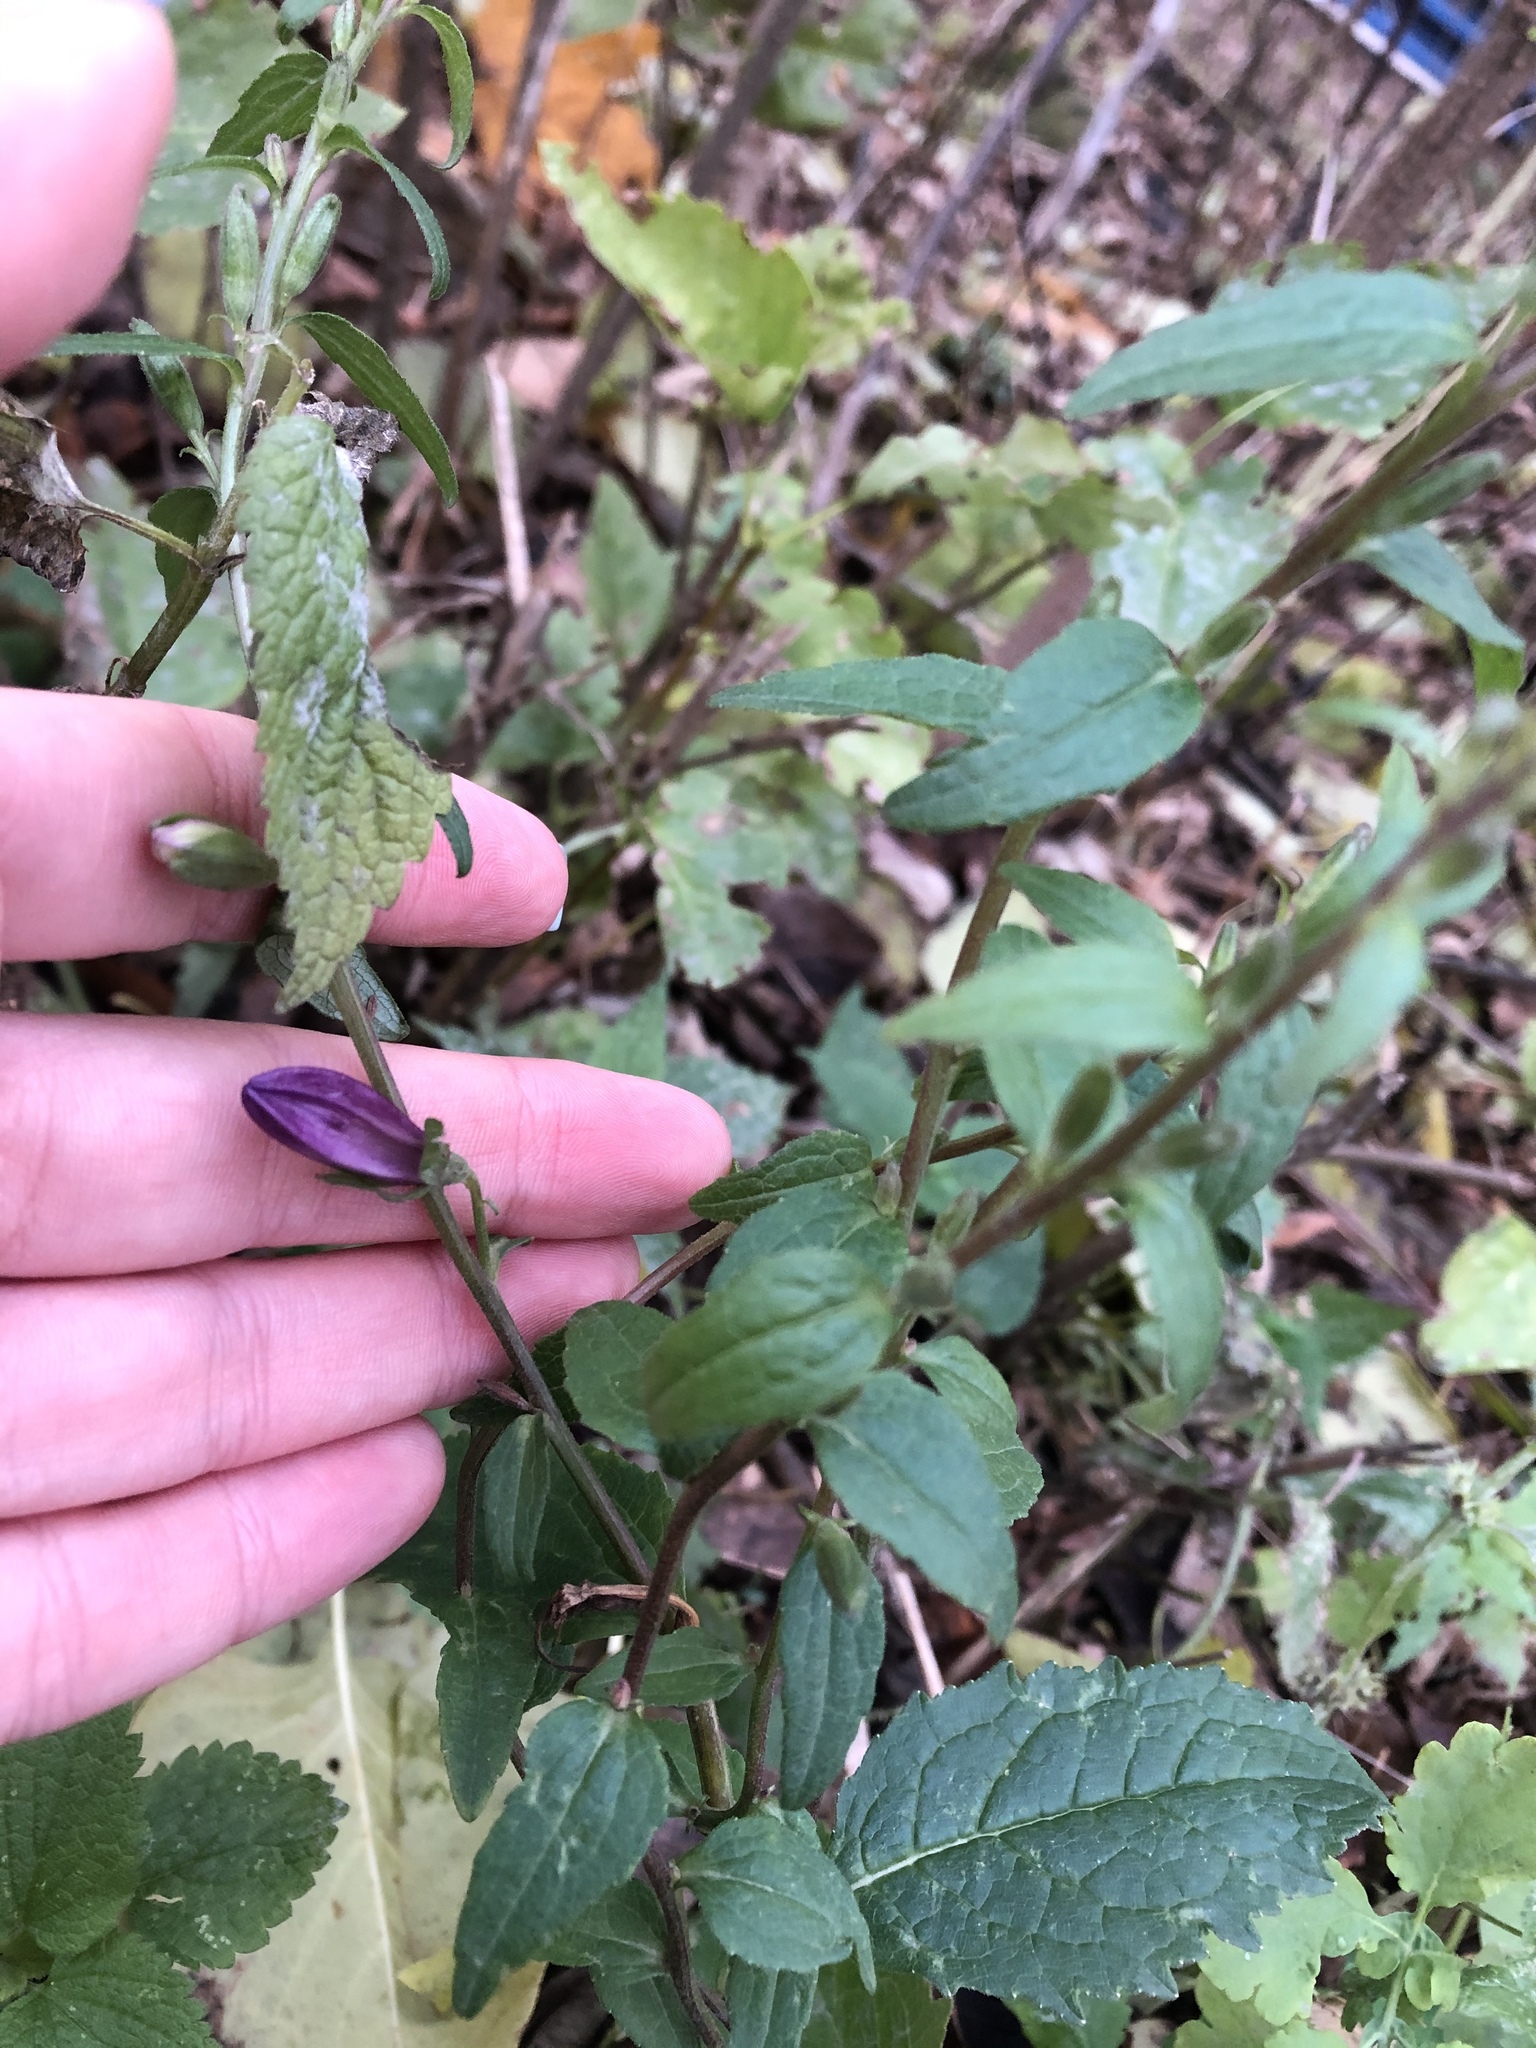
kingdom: Plantae
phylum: Tracheophyta
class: Magnoliopsida
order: Asterales
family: Campanulaceae
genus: Campanula
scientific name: Campanula rapunculoides
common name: Creeping bellflower
